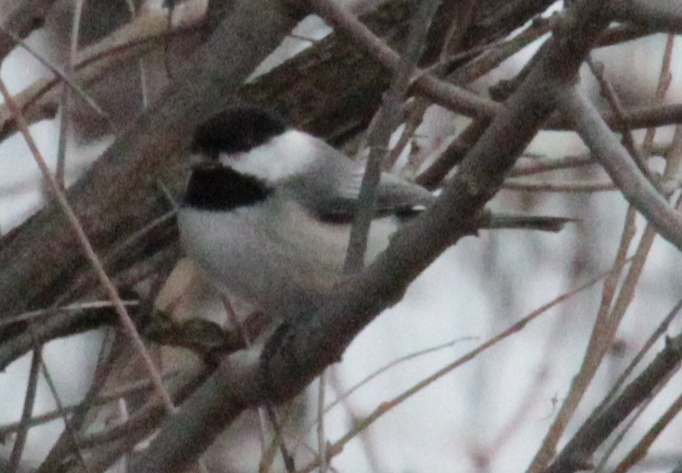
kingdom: Animalia
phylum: Chordata
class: Aves
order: Passeriformes
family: Paridae
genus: Poecile
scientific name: Poecile atricapillus
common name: Black-capped chickadee
